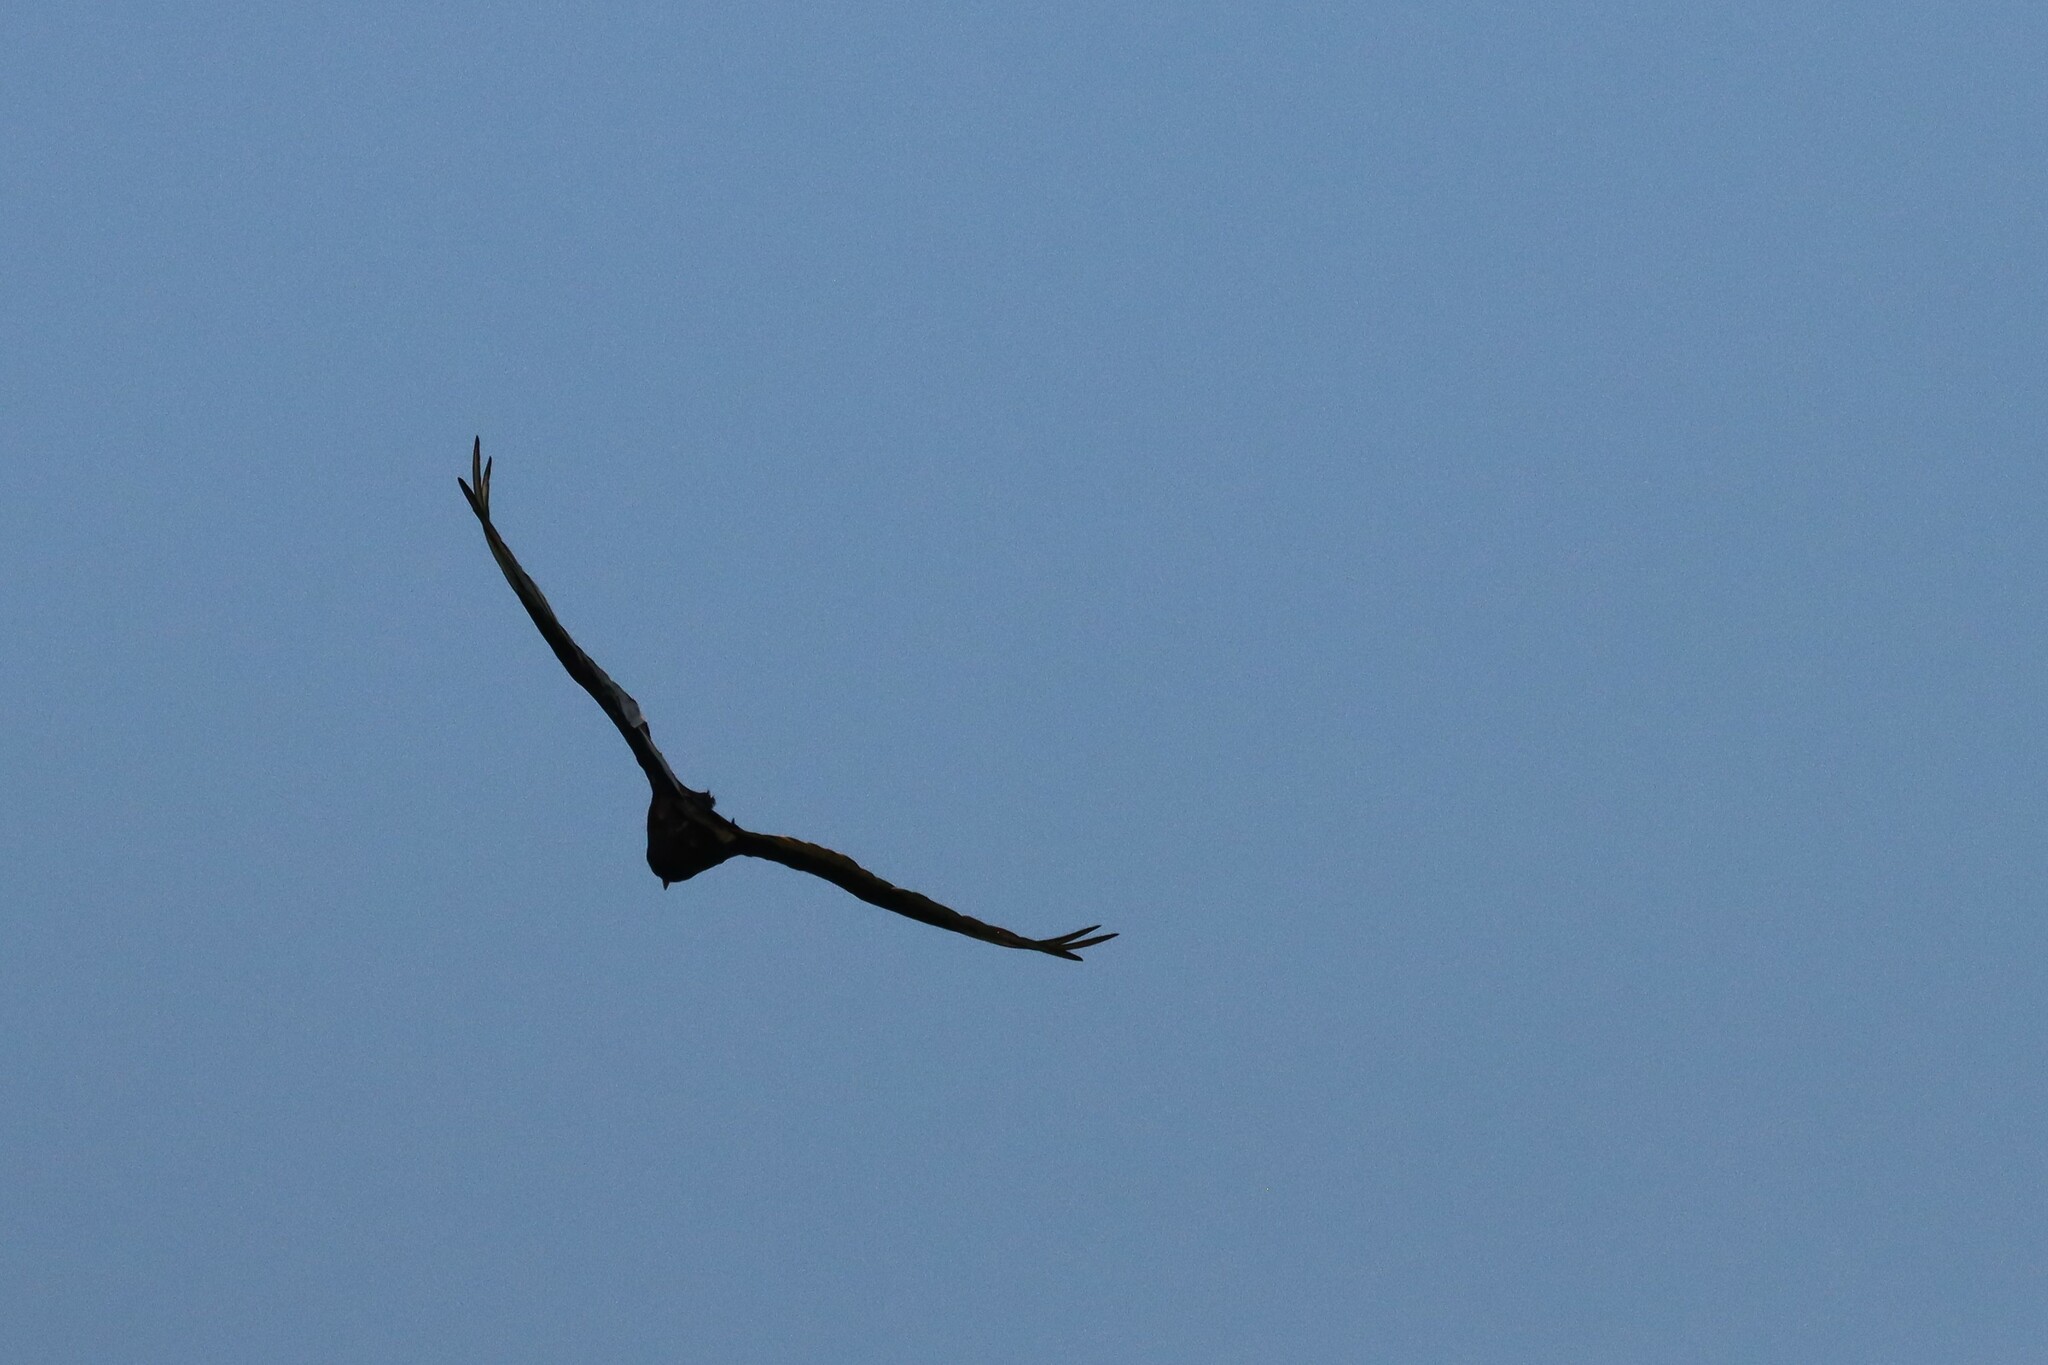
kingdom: Animalia
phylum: Chordata
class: Aves
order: Accipitriformes
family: Cathartidae
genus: Cathartes
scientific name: Cathartes aura
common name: Turkey vulture
